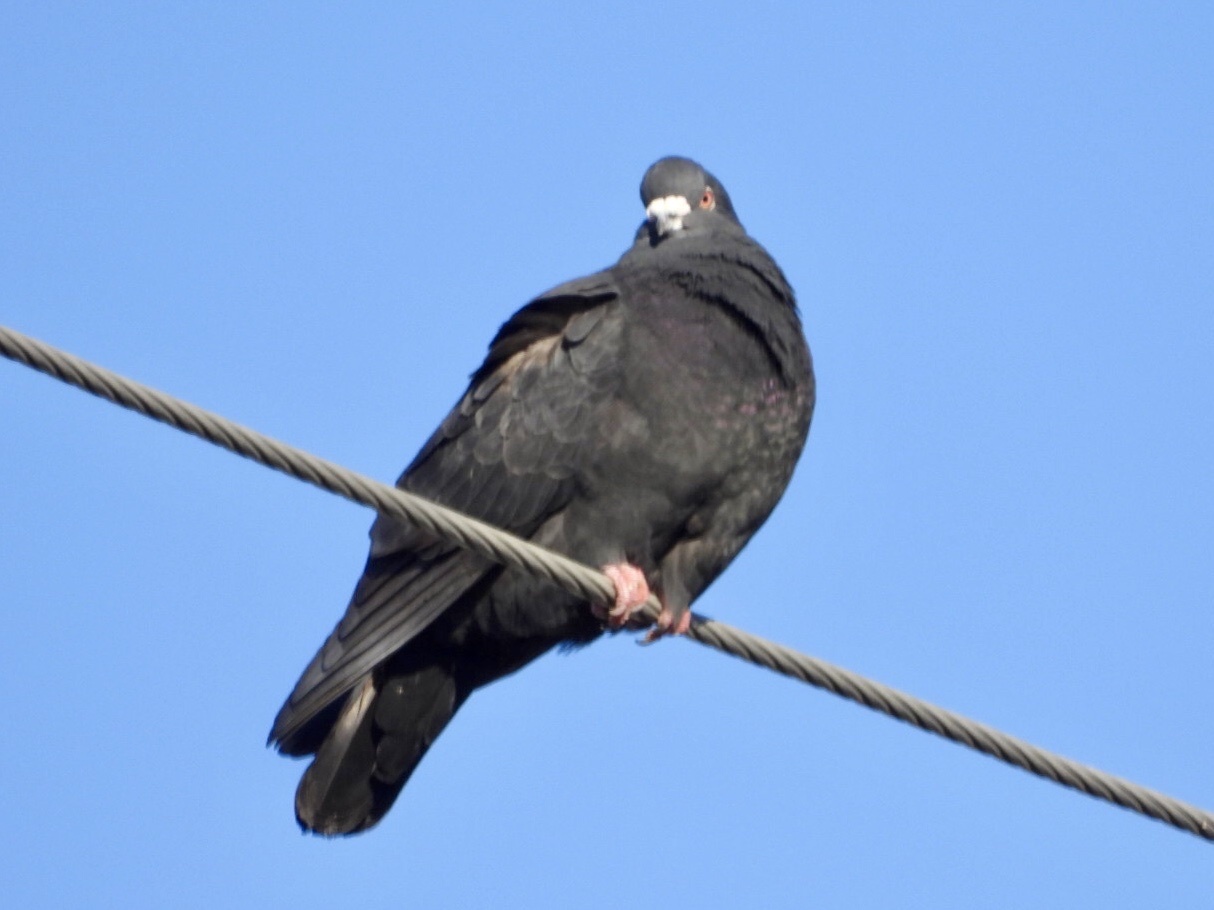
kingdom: Animalia
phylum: Chordata
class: Aves
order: Columbiformes
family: Columbidae
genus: Columba
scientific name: Columba livia
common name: Rock pigeon
